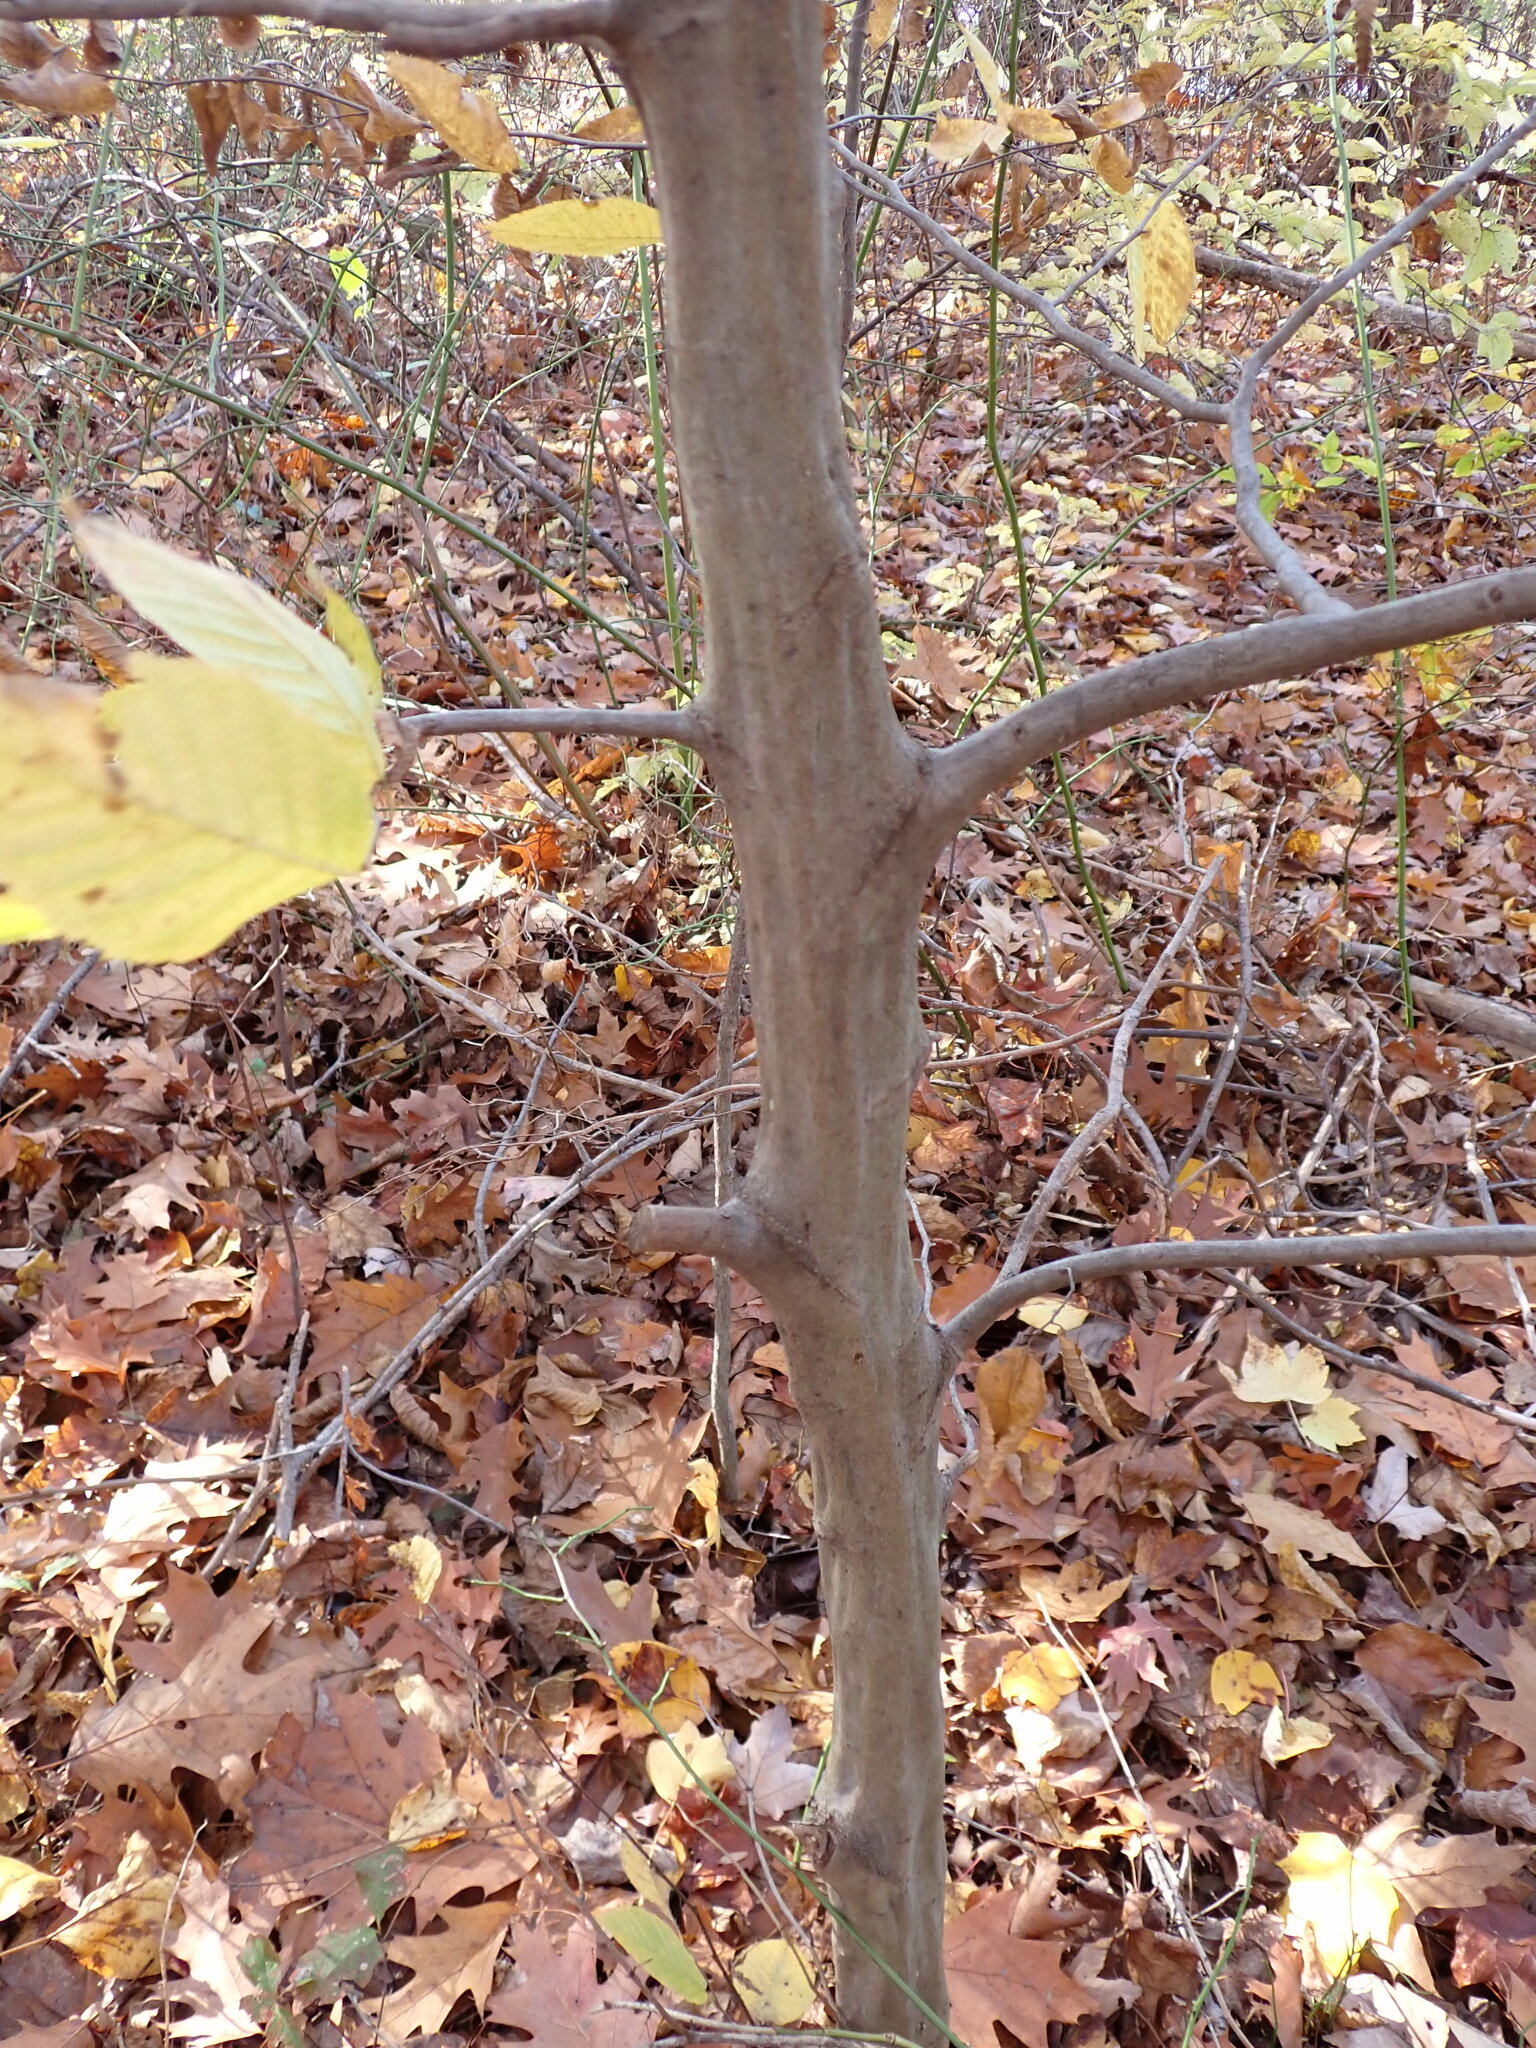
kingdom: Plantae
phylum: Tracheophyta
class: Magnoliopsida
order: Fagales
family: Betulaceae
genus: Carpinus
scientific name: Carpinus caroliniana
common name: American hornbeam
